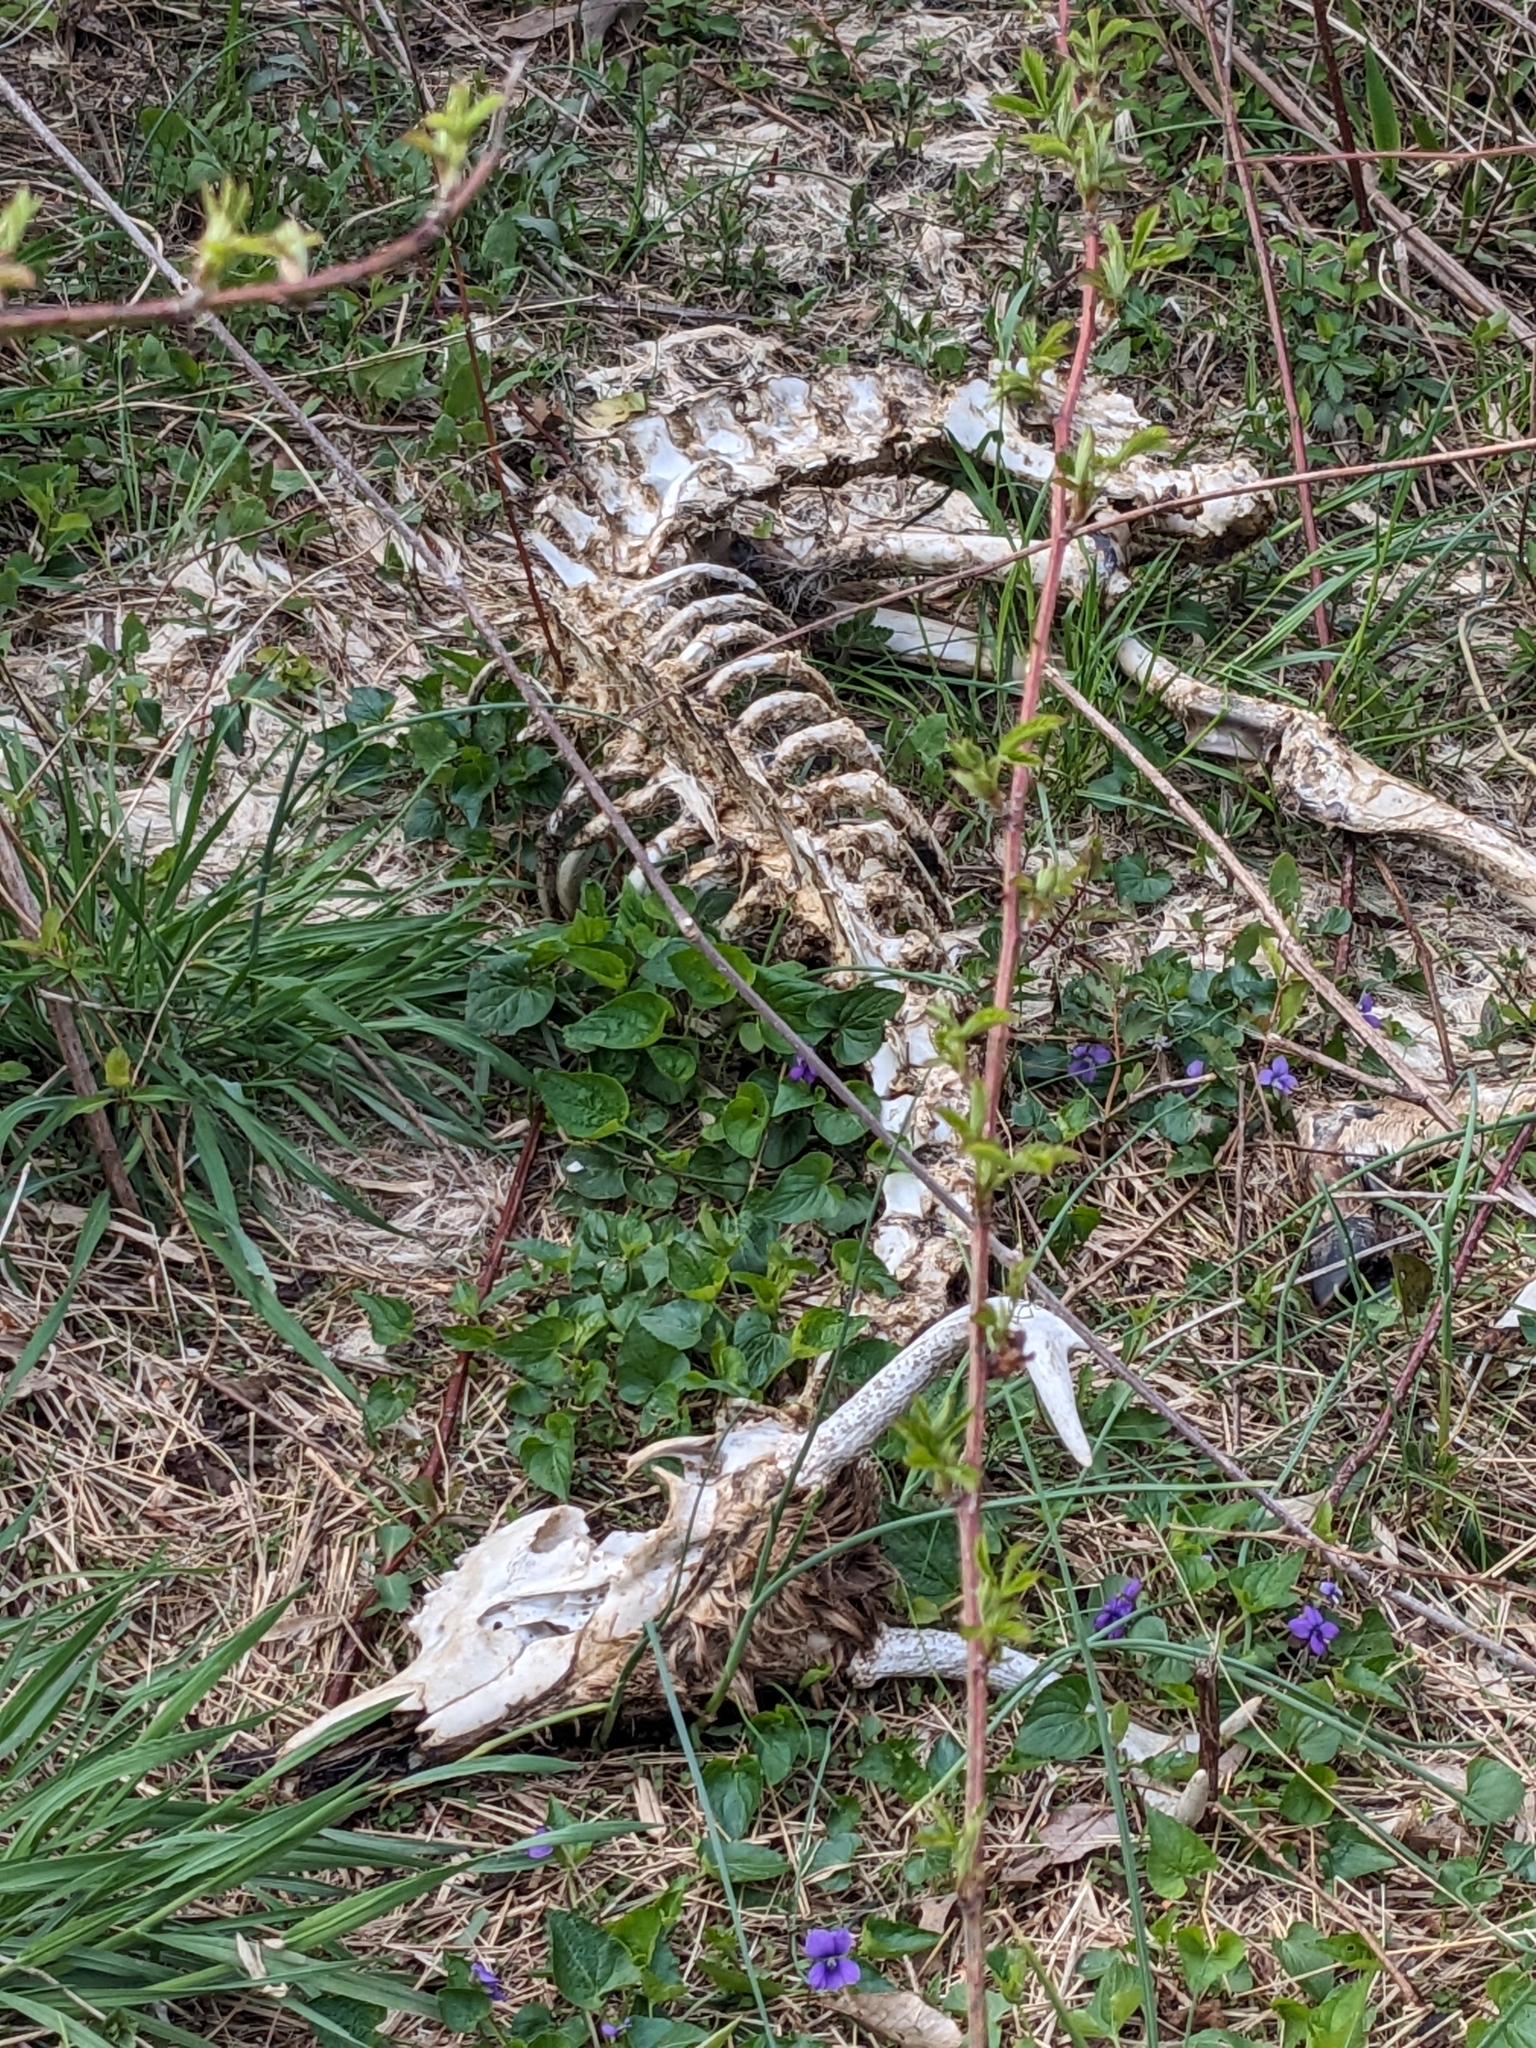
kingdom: Animalia
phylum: Chordata
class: Mammalia
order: Artiodactyla
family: Cervidae
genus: Odocoileus
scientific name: Odocoileus virginianus
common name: White-tailed deer
